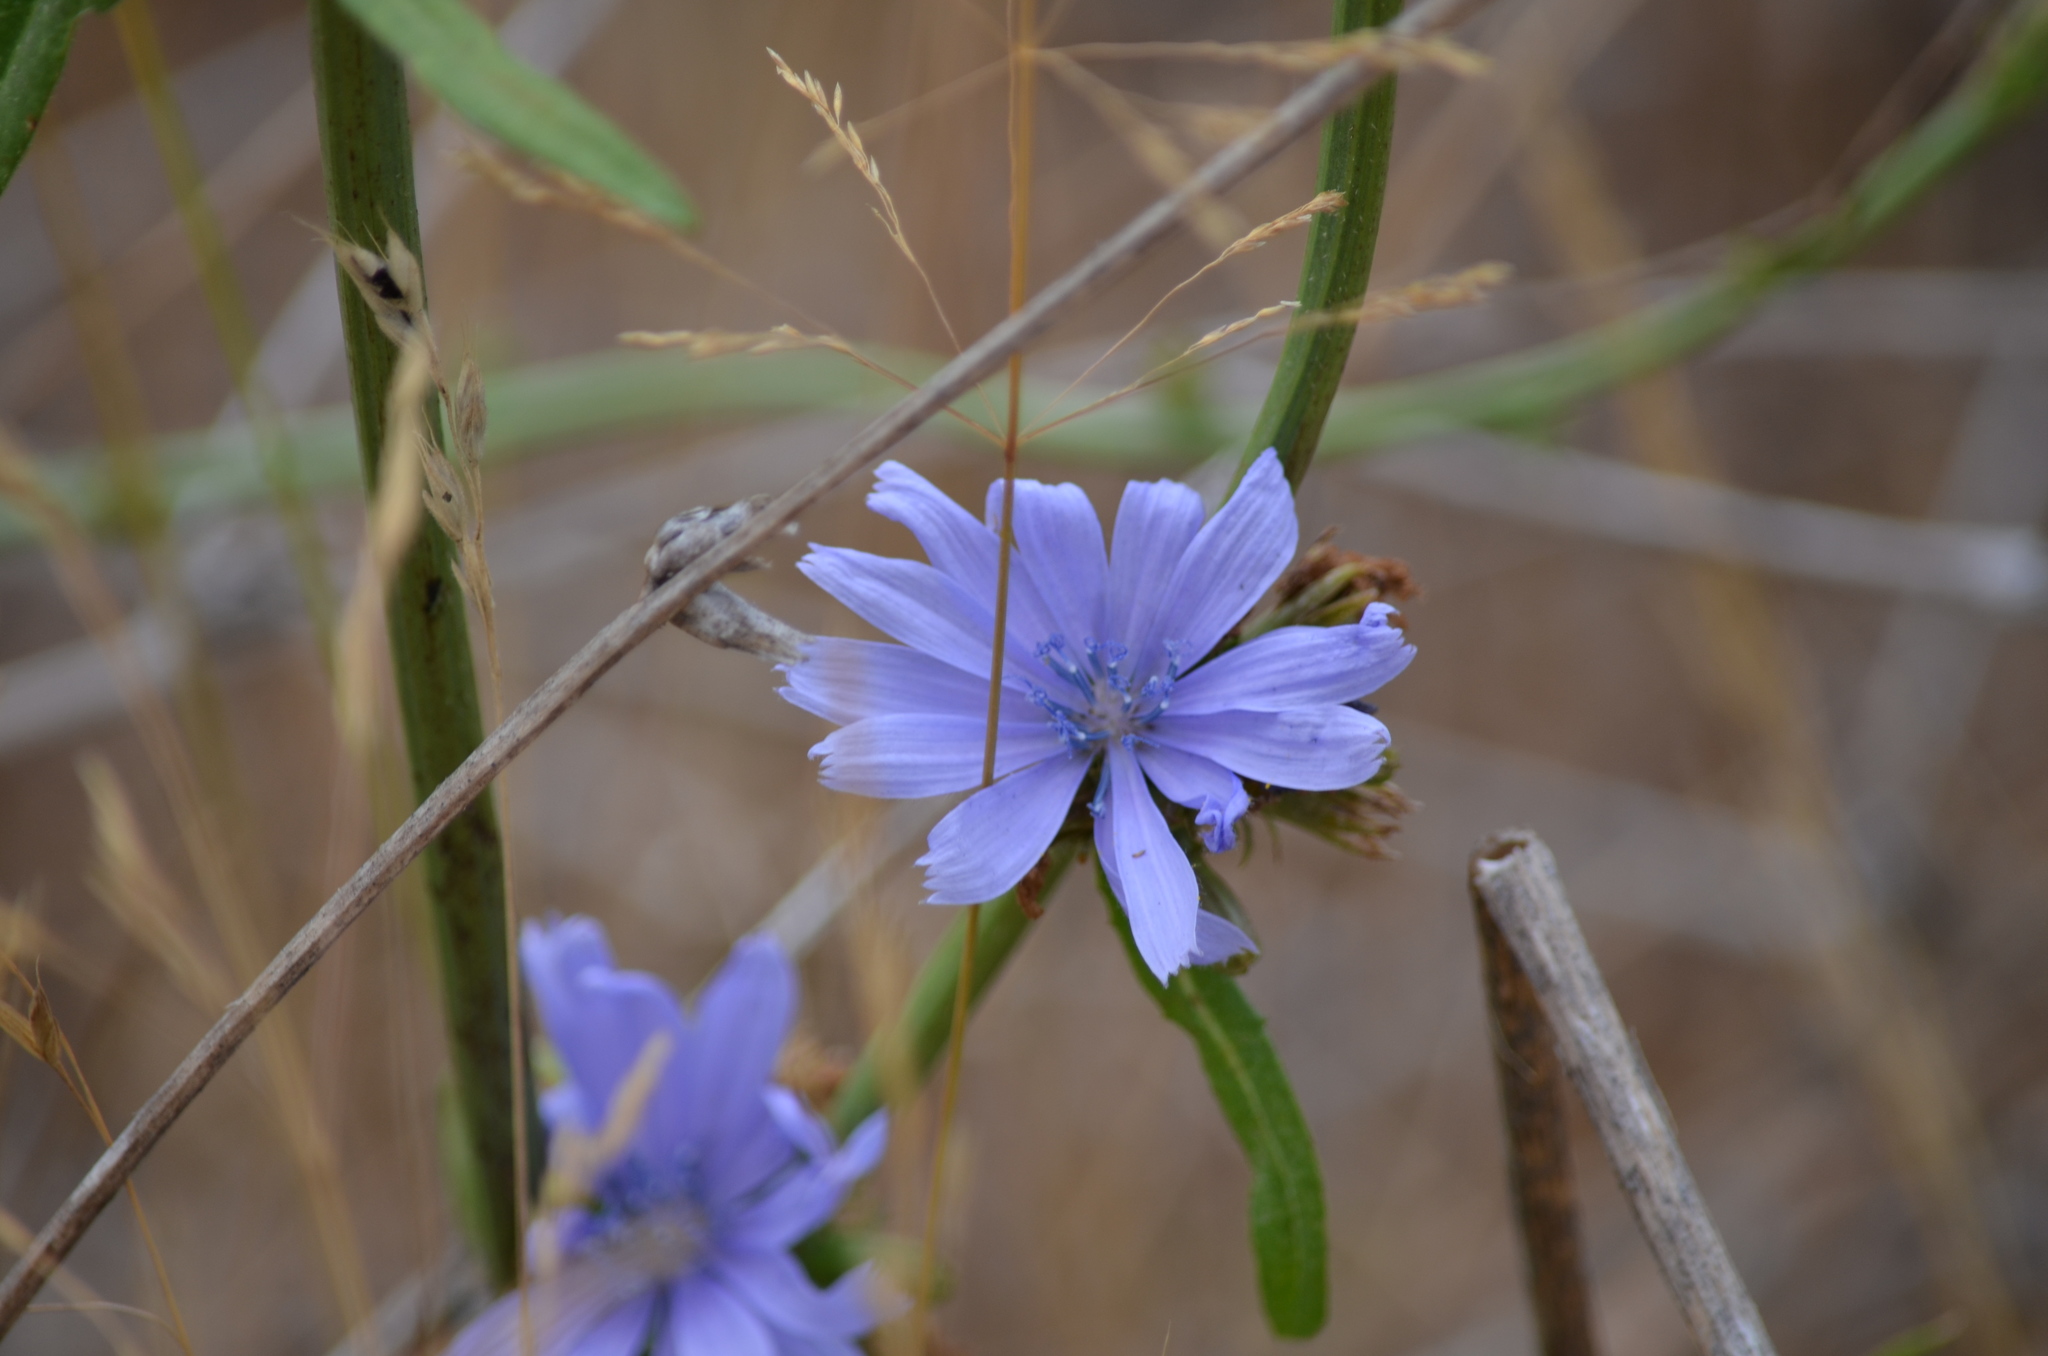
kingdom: Plantae
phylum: Tracheophyta
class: Magnoliopsida
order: Asterales
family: Asteraceae
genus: Cichorium
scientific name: Cichorium intybus
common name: Chicory
